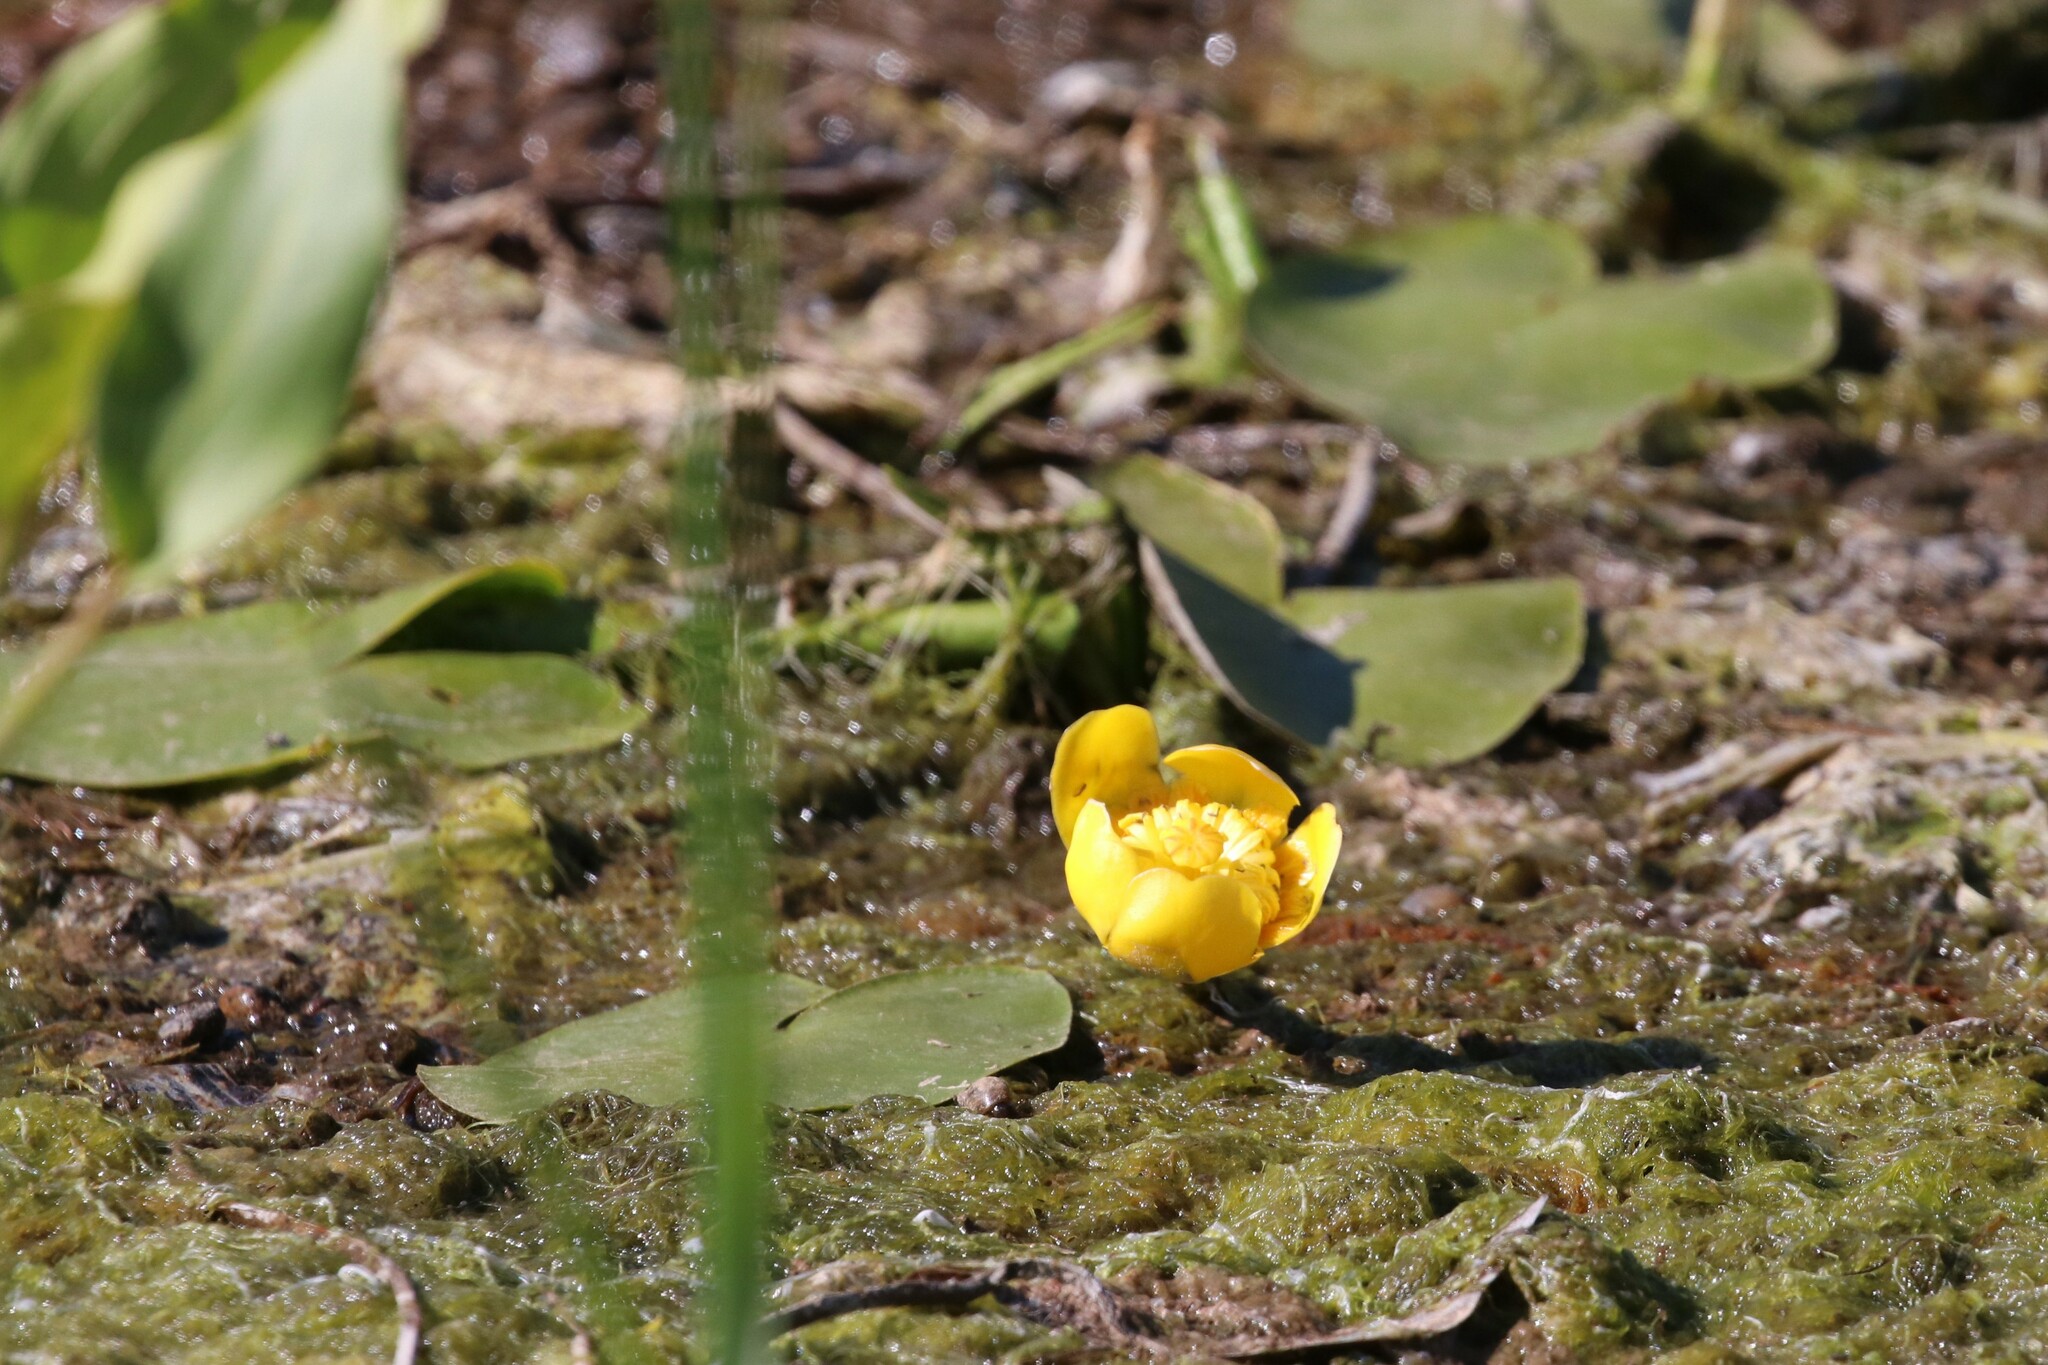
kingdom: Plantae
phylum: Tracheophyta
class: Magnoliopsida
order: Nymphaeales
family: Nymphaeaceae
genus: Nuphar
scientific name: Nuphar lutea
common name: Yellow water-lily
